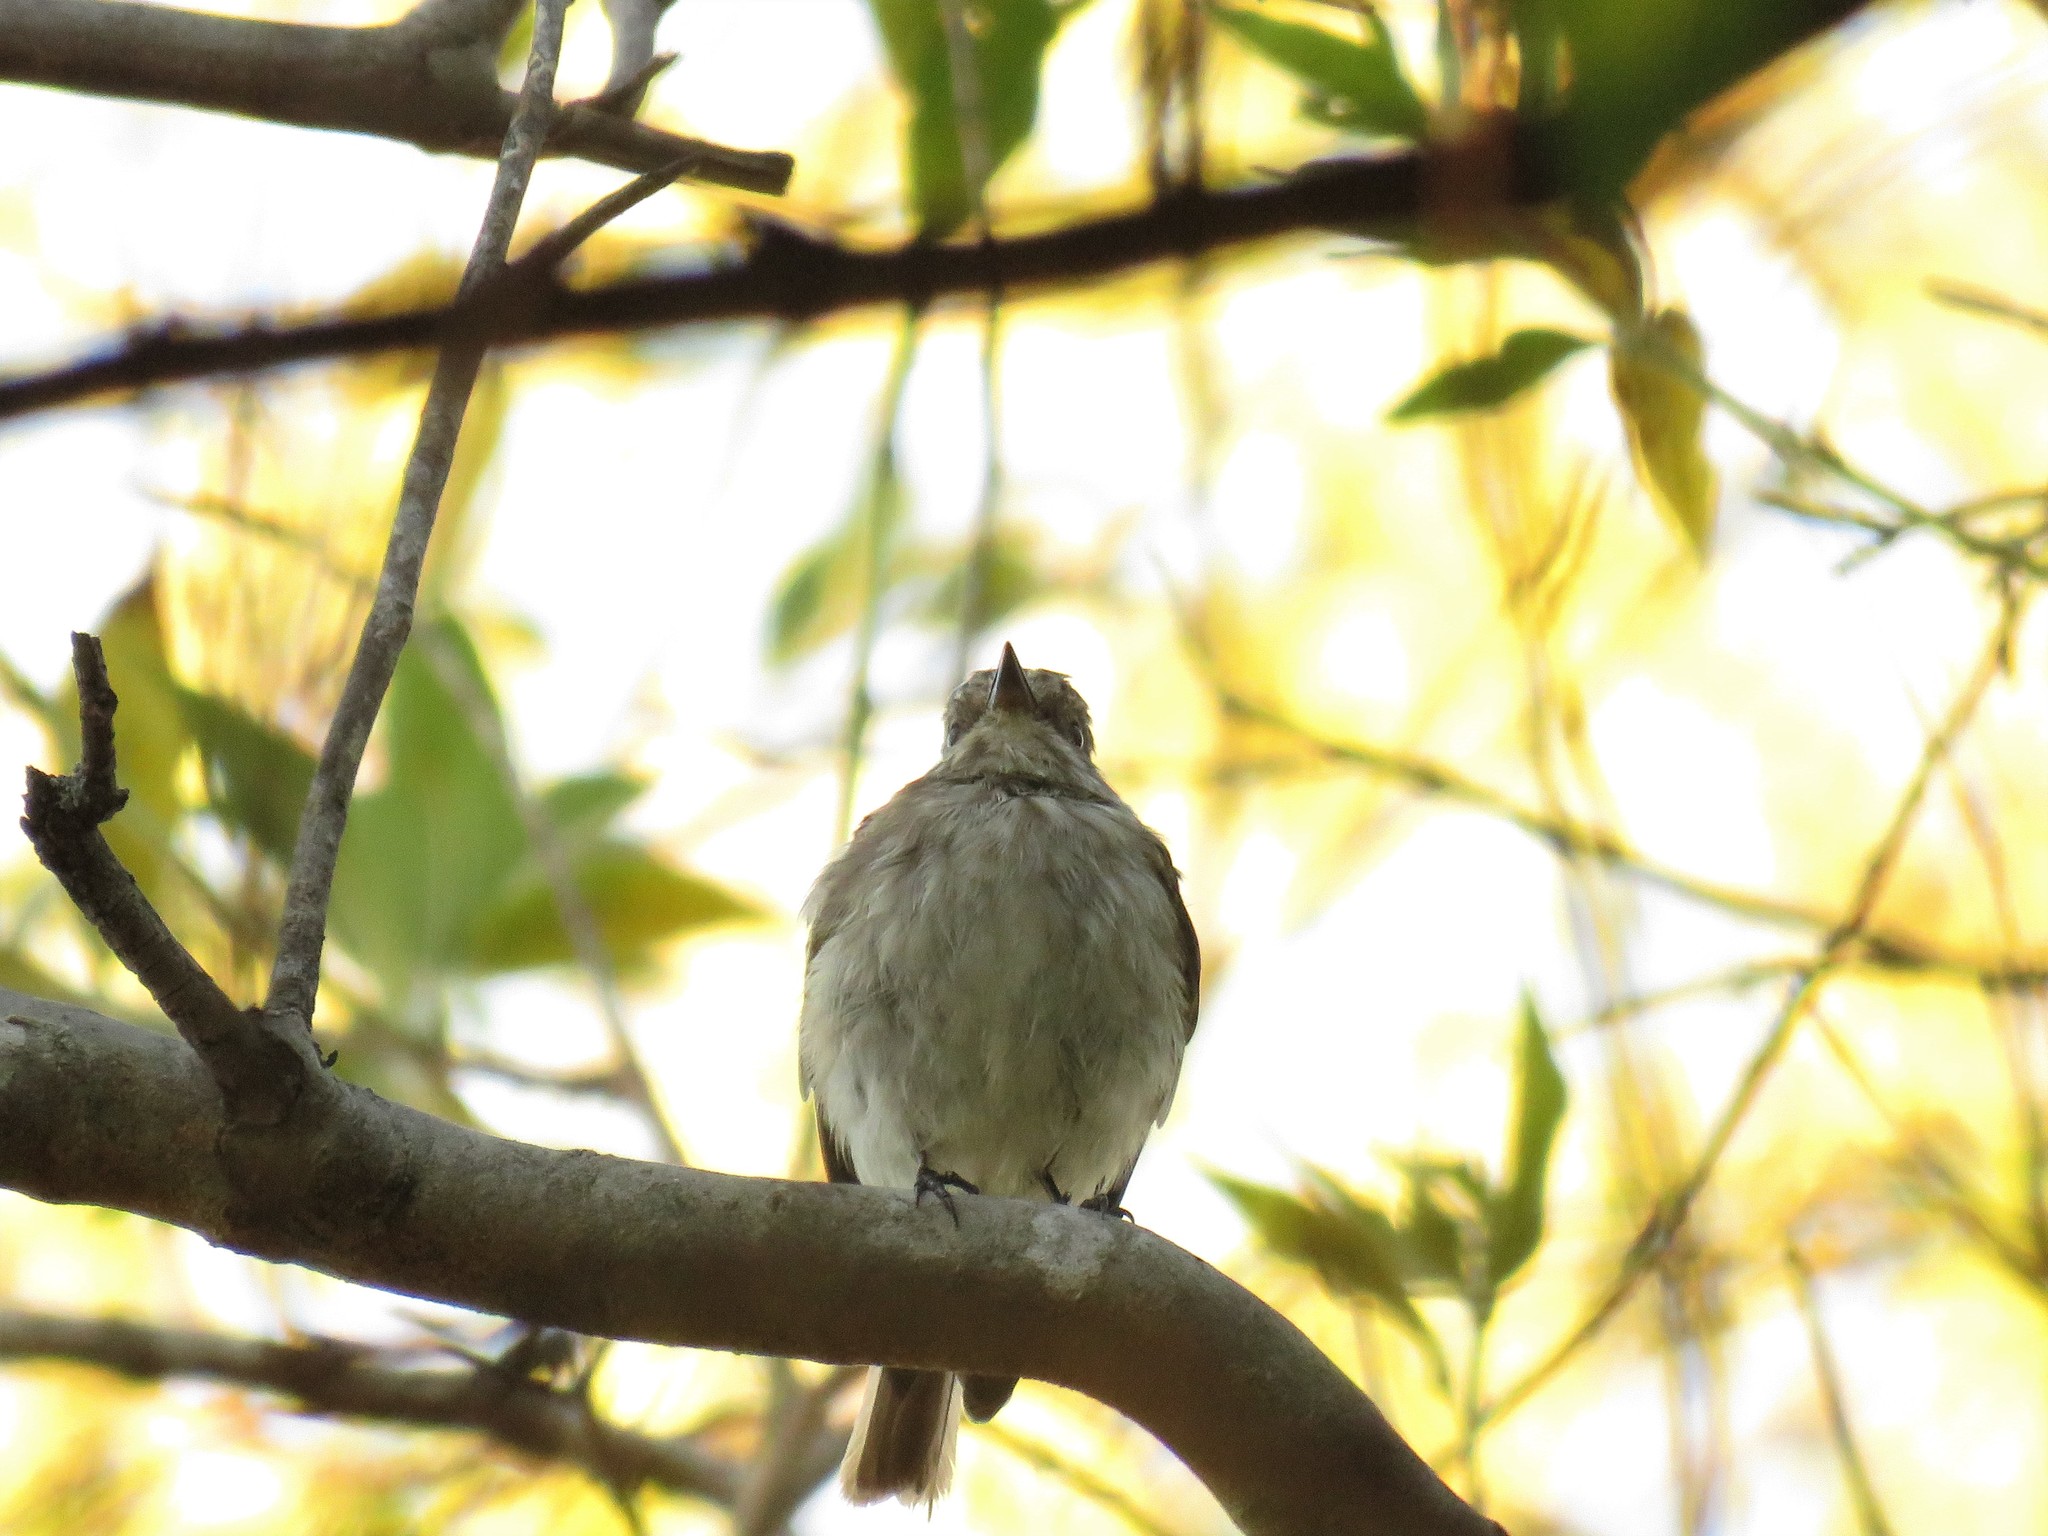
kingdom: Animalia
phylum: Chordata
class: Aves
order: Passeriformes
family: Muscicapidae
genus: Muscicapa
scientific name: Muscicapa striata
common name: Spotted flycatcher
